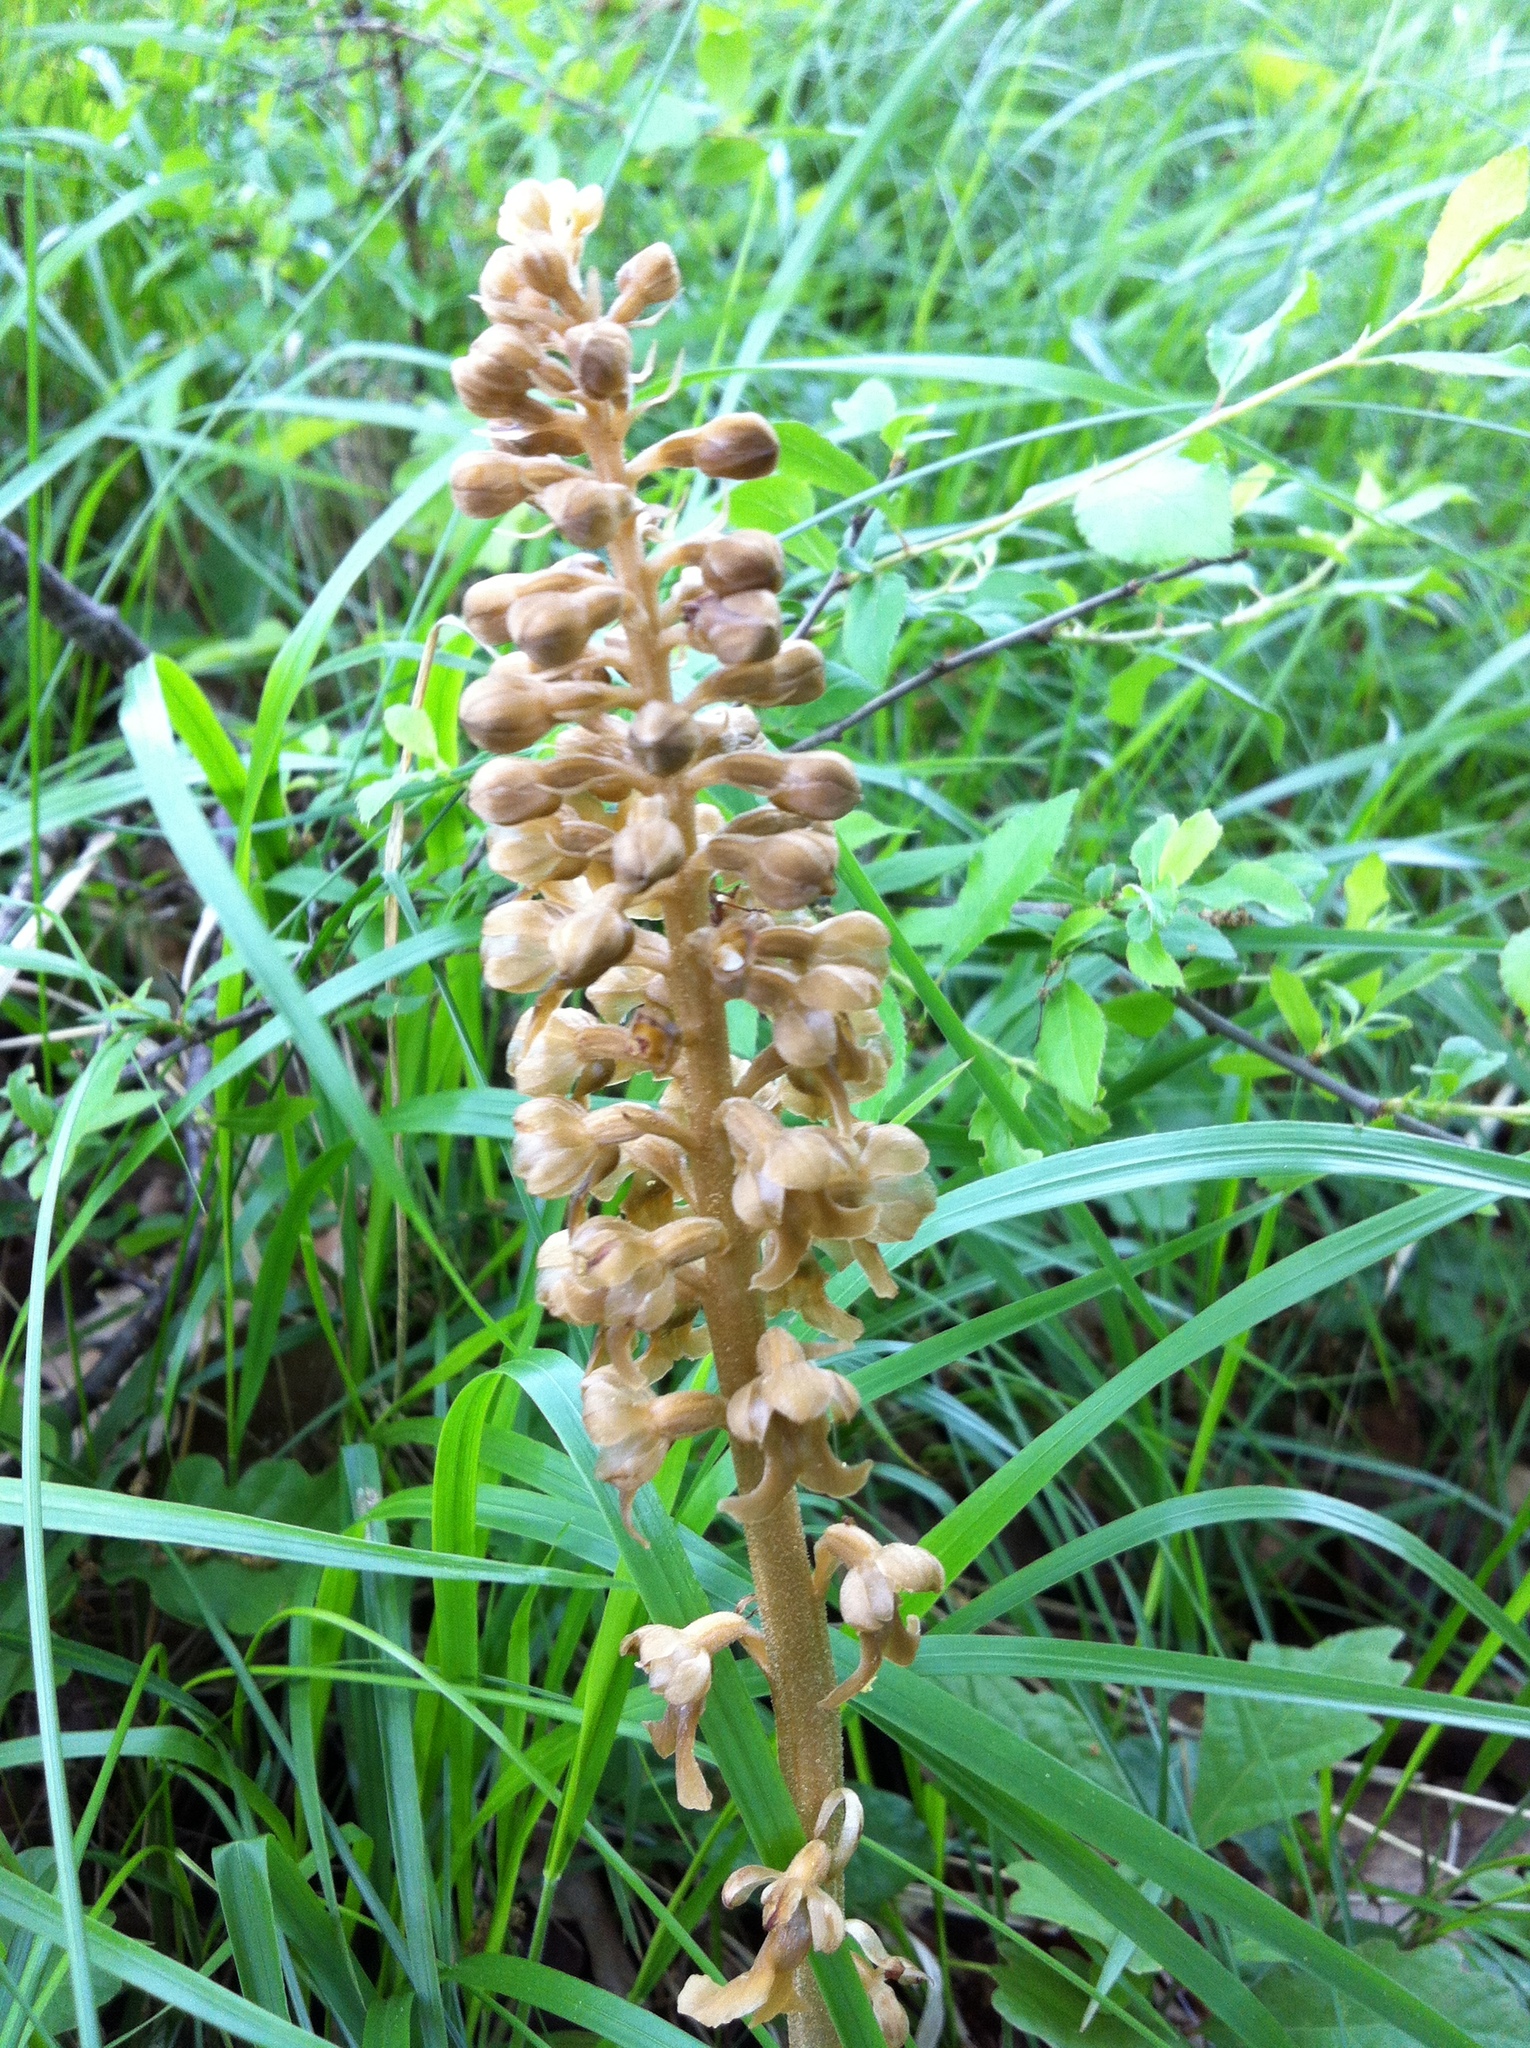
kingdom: Plantae
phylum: Tracheophyta
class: Liliopsida
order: Asparagales
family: Orchidaceae
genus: Neottia
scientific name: Neottia nidus-avis
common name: Bird's-nest orchid
